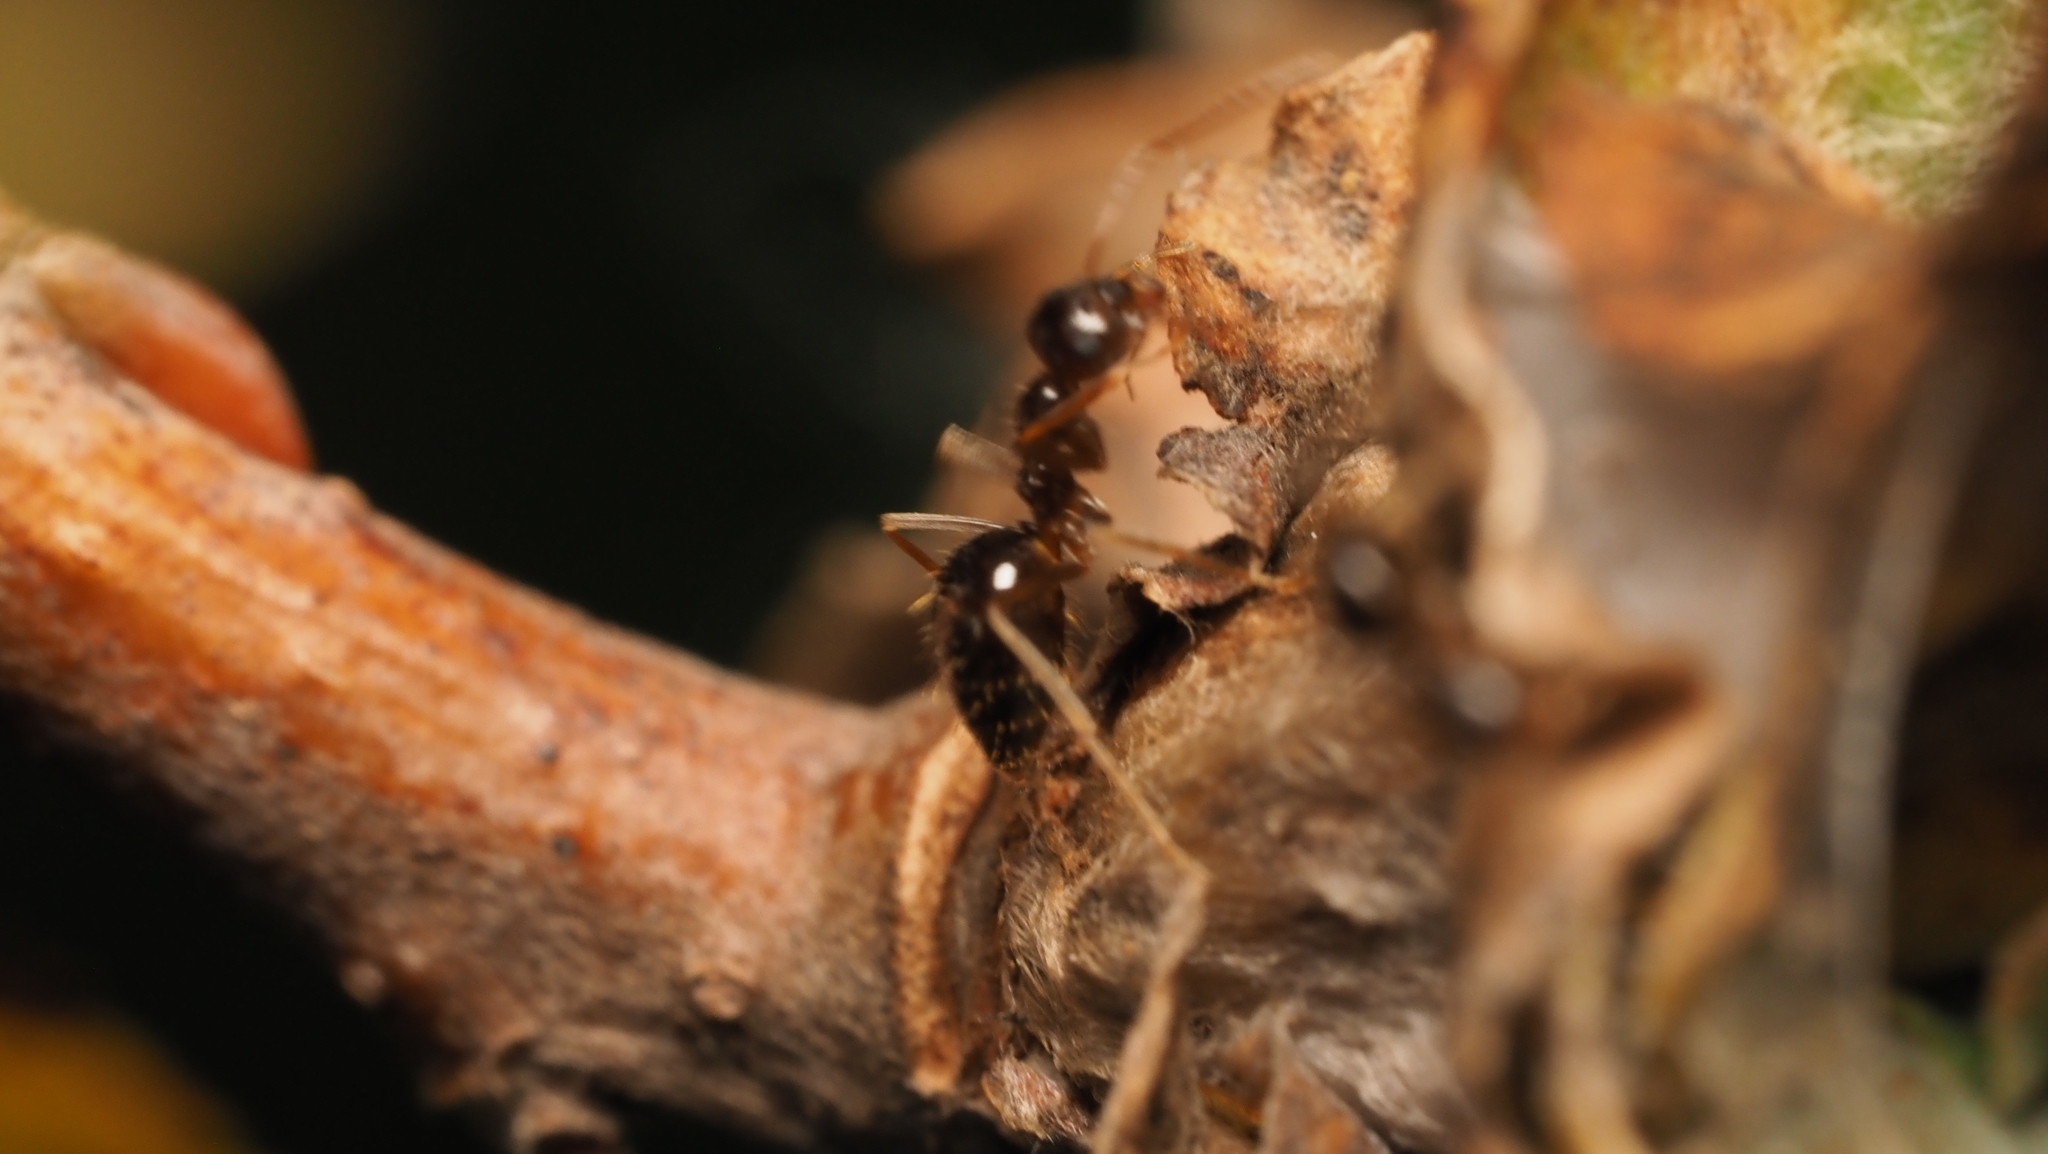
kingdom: Animalia
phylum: Arthropoda
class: Insecta
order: Hymenoptera
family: Formicidae
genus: Prenolepis
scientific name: Prenolepis imparis
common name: Small honey ant
